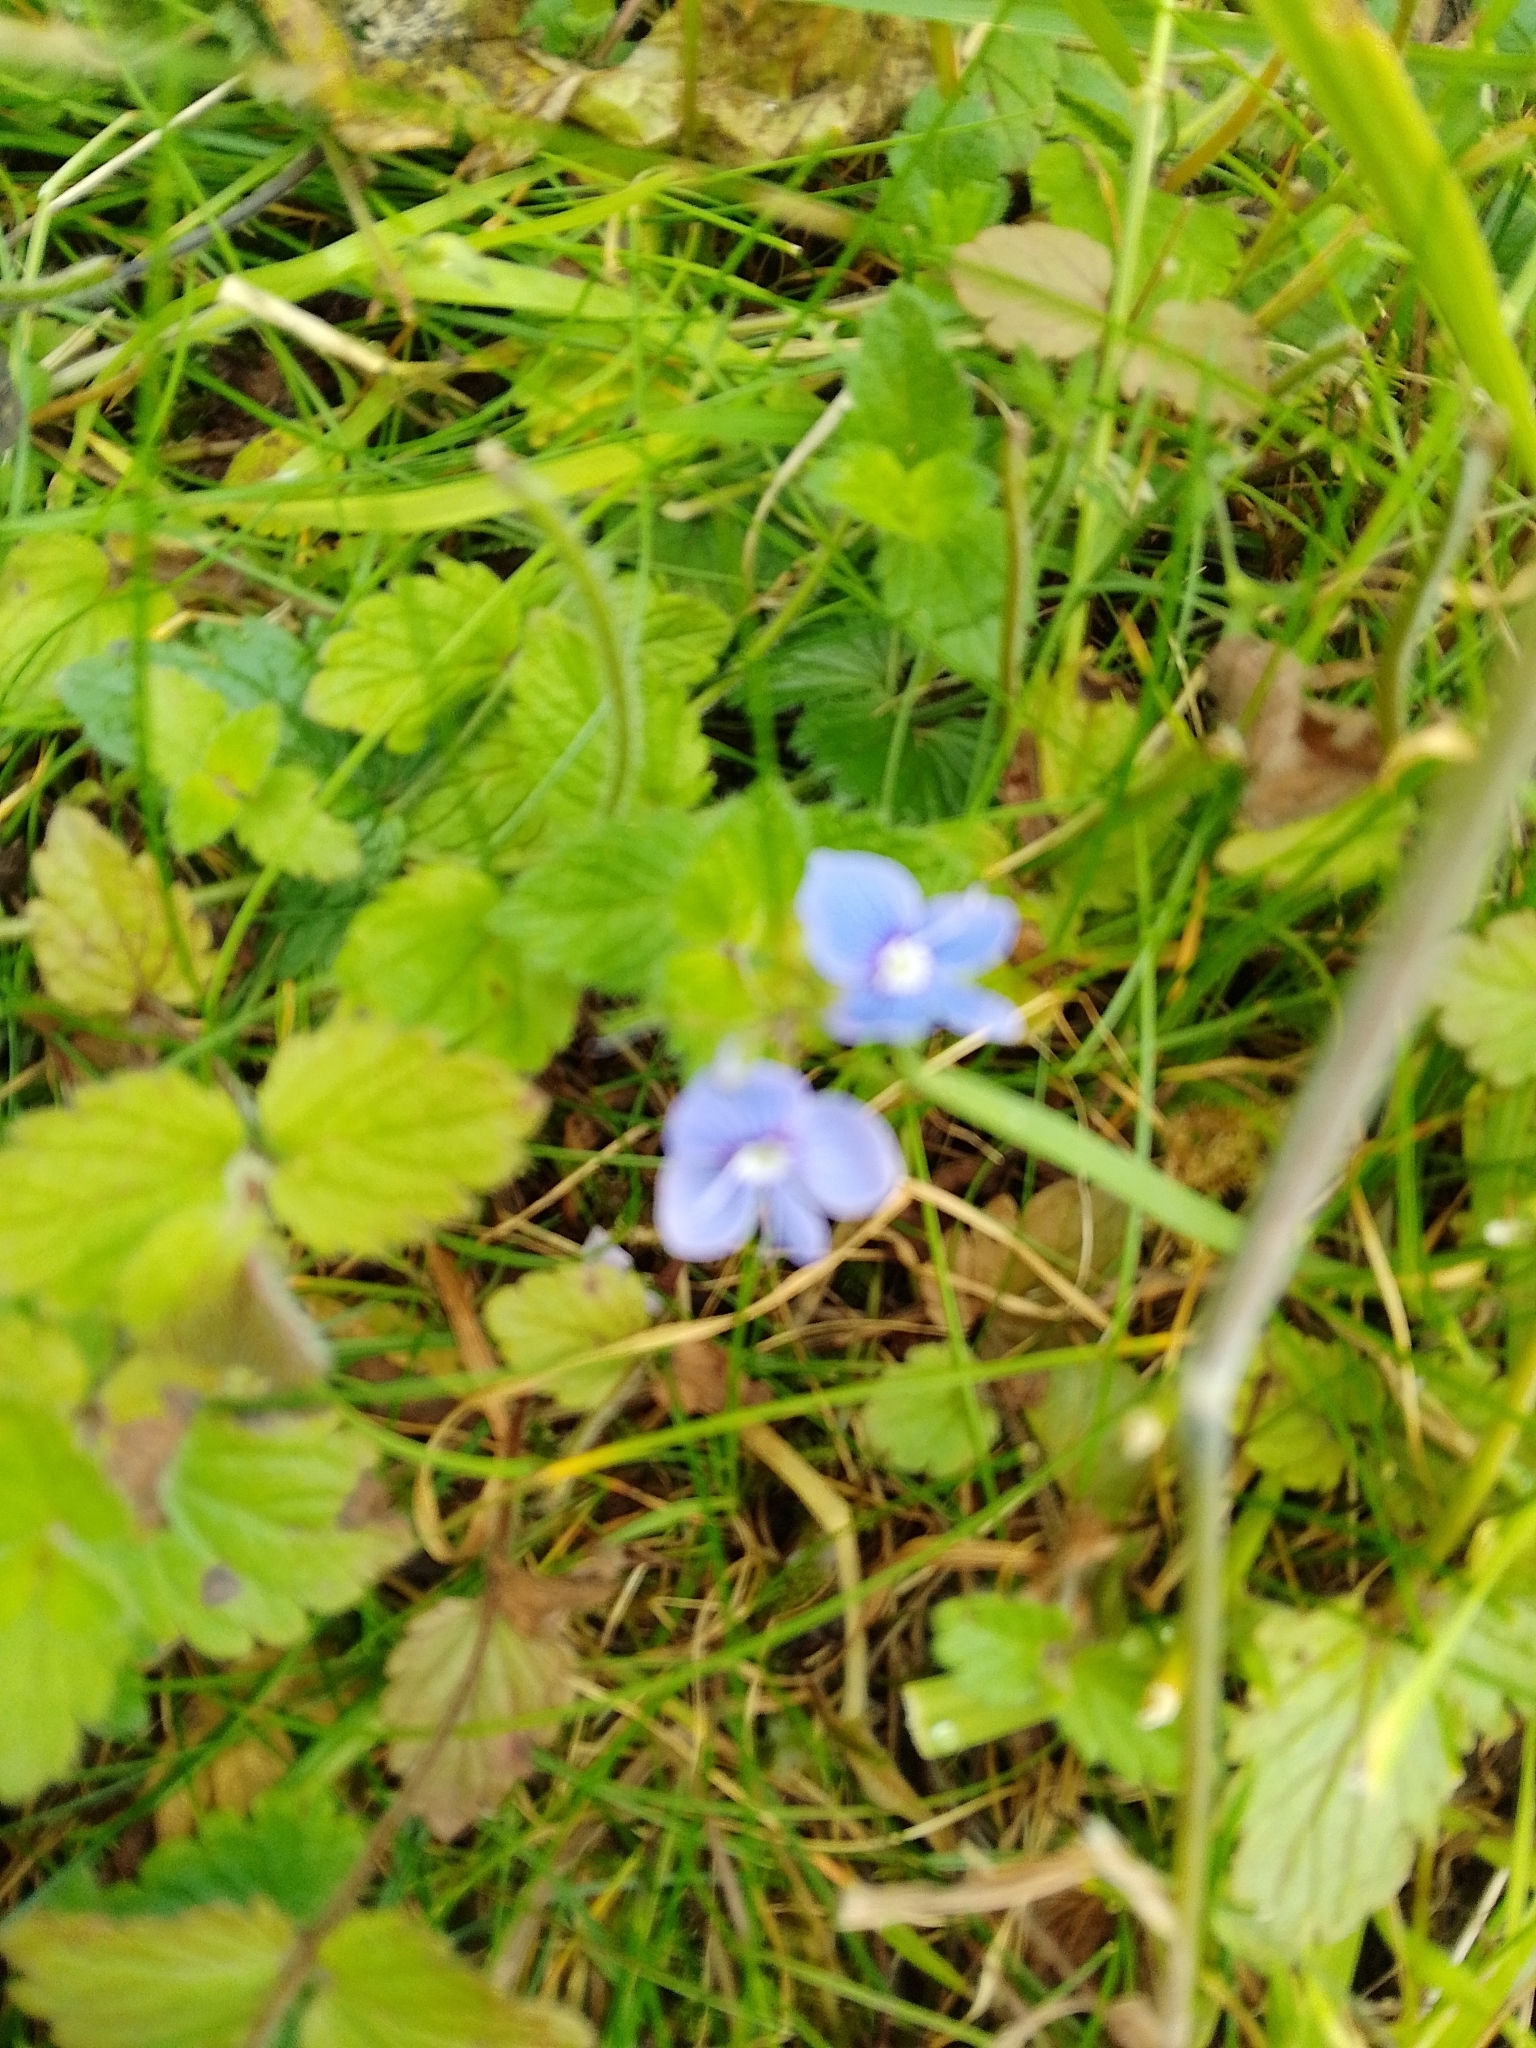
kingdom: Plantae
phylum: Tracheophyta
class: Magnoliopsida
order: Lamiales
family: Plantaginaceae
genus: Veronica
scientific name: Veronica chamaedrys
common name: Germander speedwell
